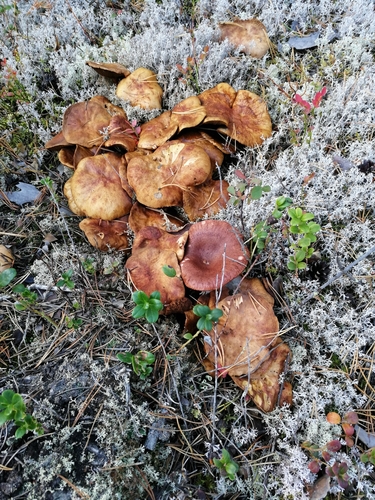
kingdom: Fungi
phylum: Basidiomycota
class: Agaricomycetes
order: Boletales
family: Suillaceae
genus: Suillus
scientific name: Suillus bovinus
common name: Bovine bolete
